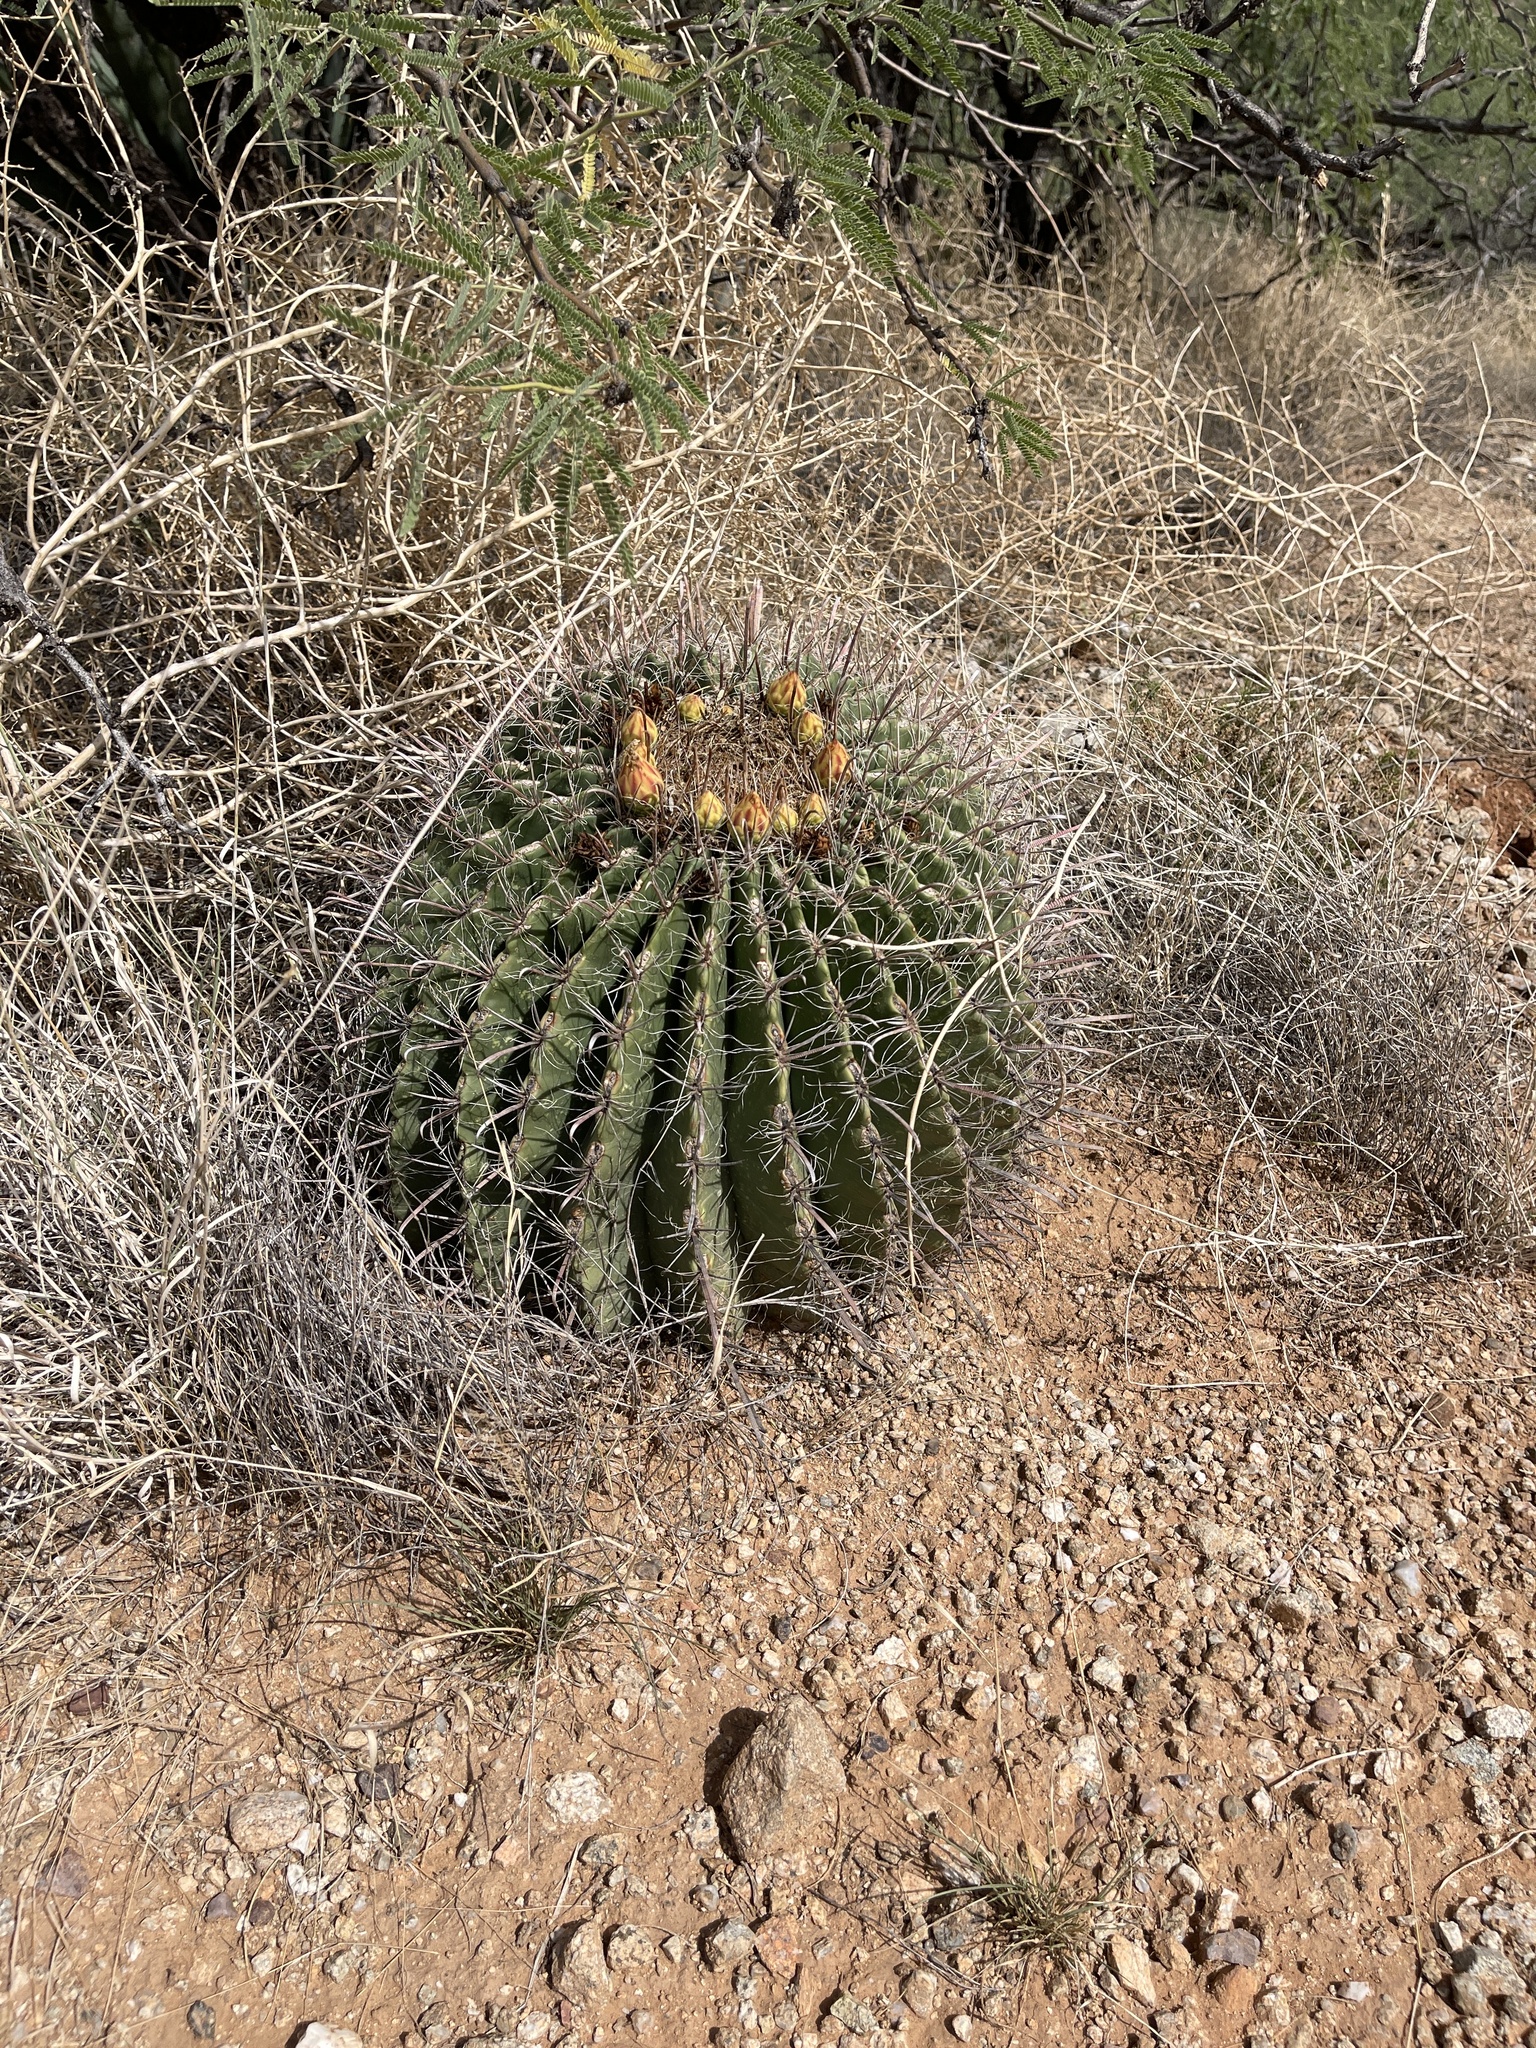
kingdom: Plantae
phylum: Tracheophyta
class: Magnoliopsida
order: Caryophyllales
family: Cactaceae
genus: Ferocactus
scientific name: Ferocactus wislizeni
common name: Candy barrel cactus
